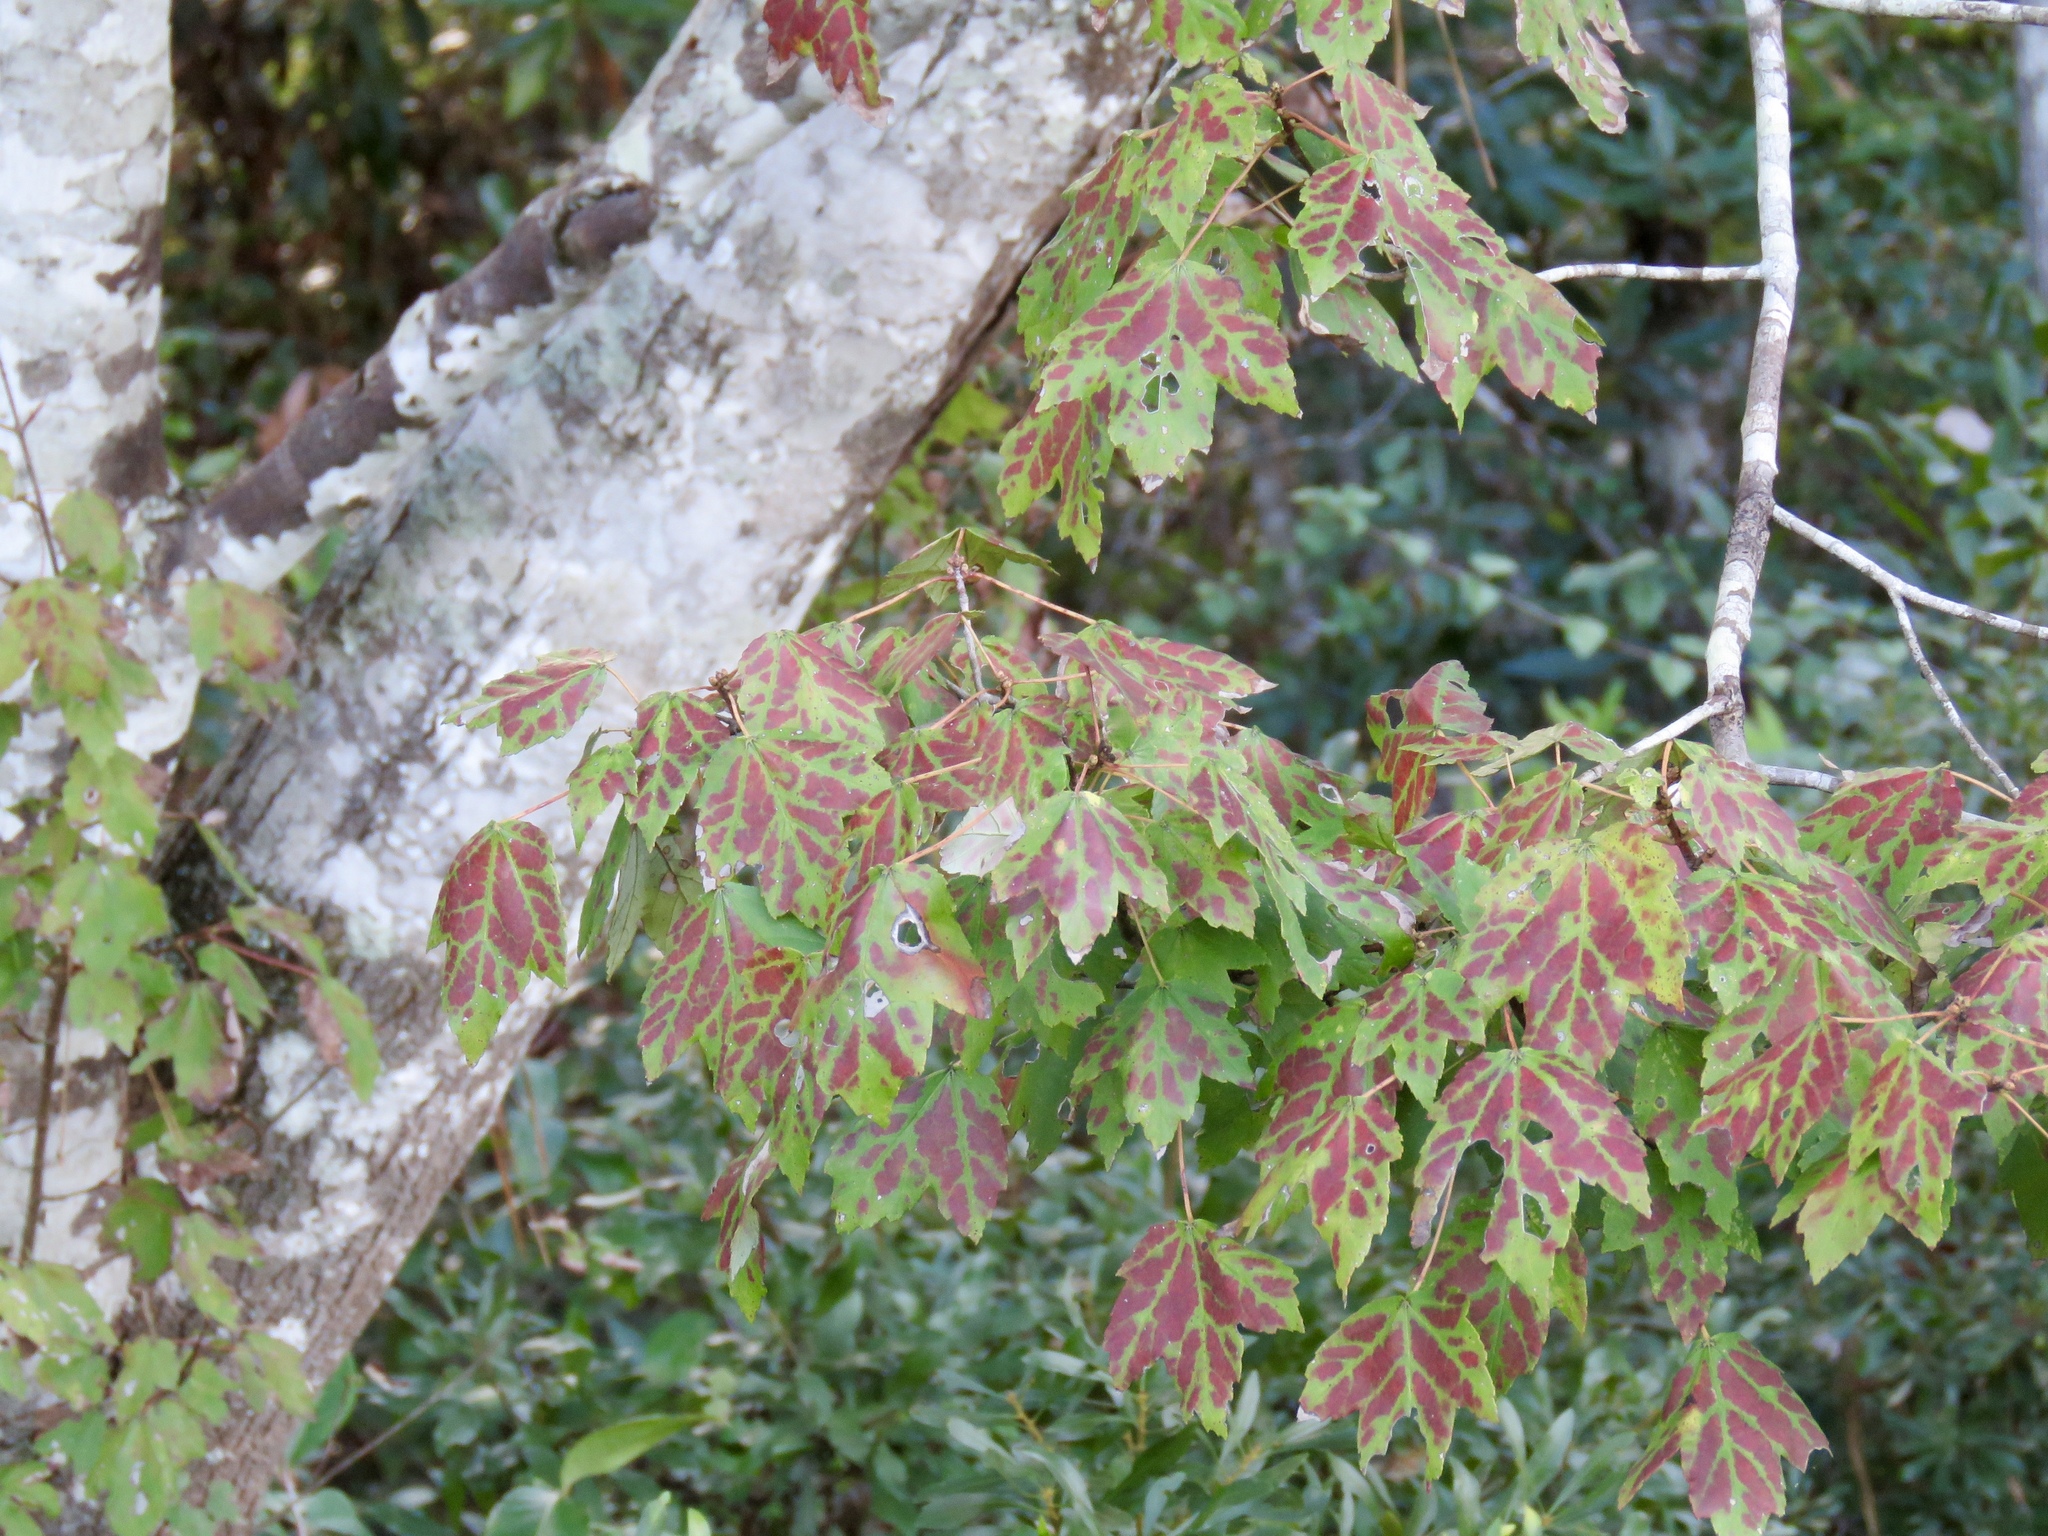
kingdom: Plantae
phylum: Tracheophyta
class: Magnoliopsida
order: Sapindales
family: Sapindaceae
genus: Acer
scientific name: Acer rubrum
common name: Red maple
